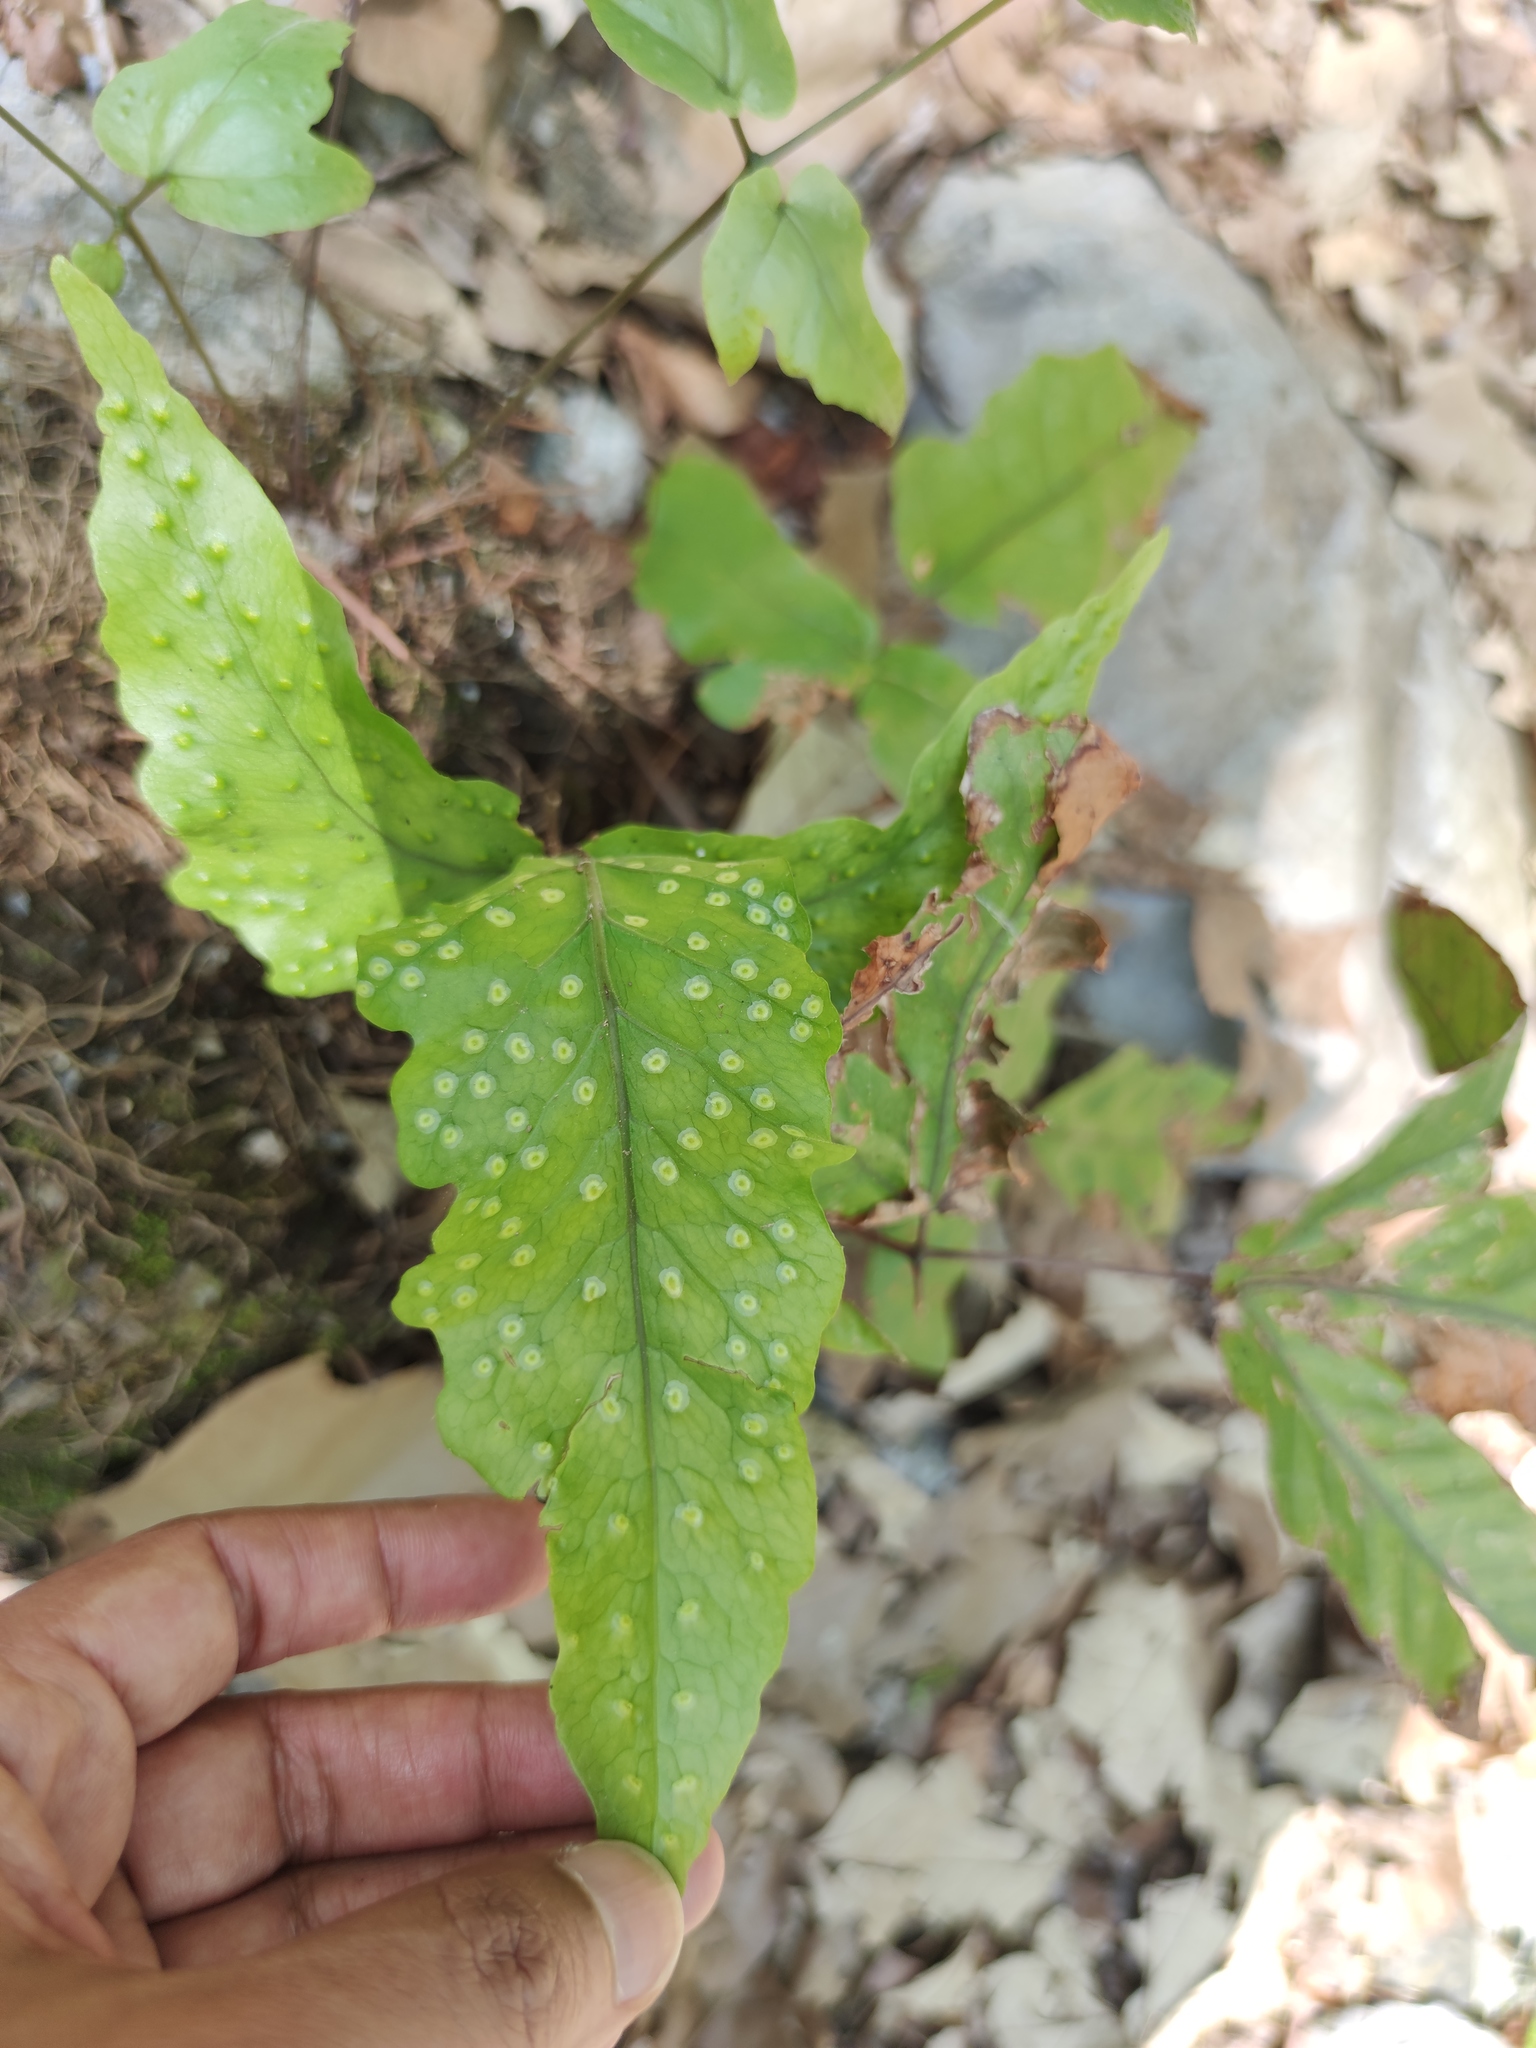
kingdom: Plantae
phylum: Tracheophyta
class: Polypodiopsida
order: Polypodiales
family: Tectariaceae
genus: Tectaria
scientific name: Tectaria heracleifolia
